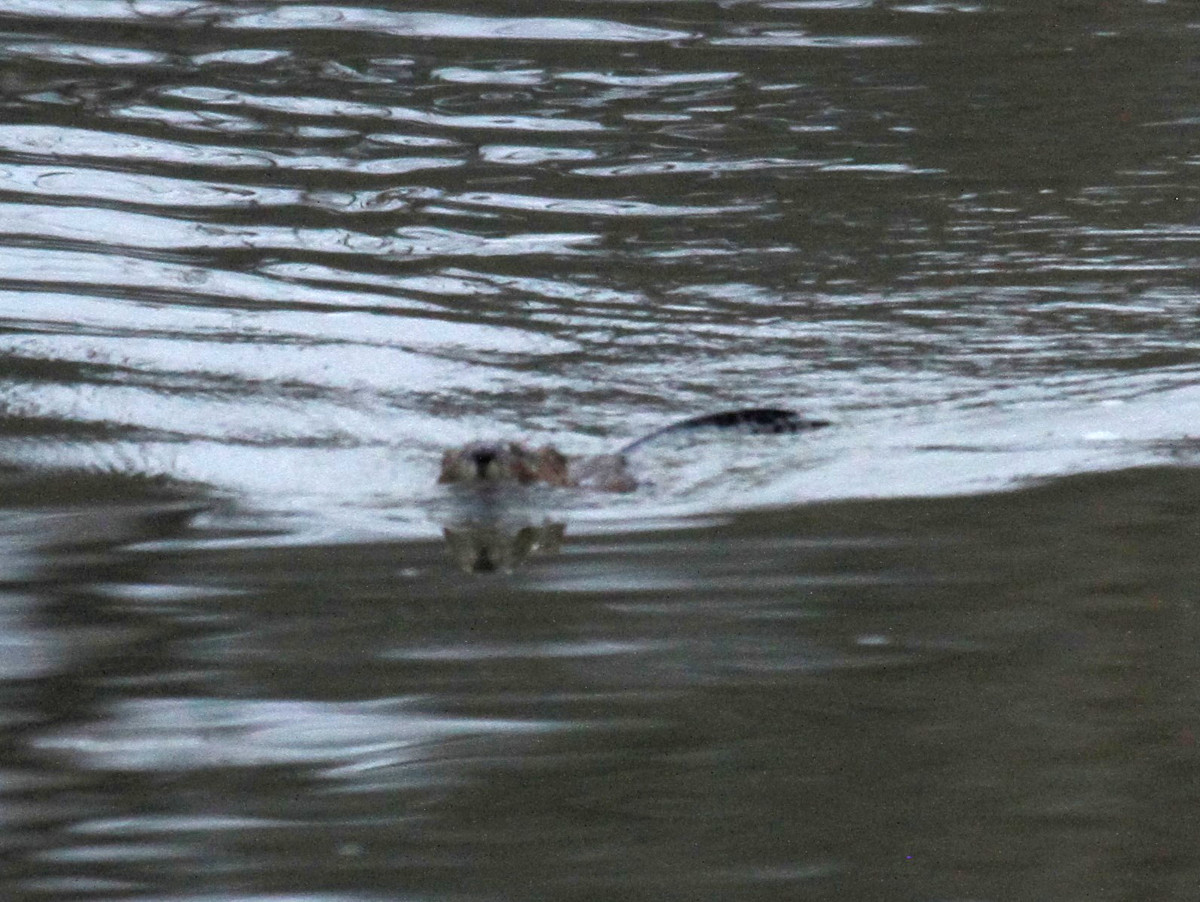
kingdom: Animalia
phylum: Chordata
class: Mammalia
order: Rodentia
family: Castoridae
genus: Castor
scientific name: Castor canadensis
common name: American beaver
